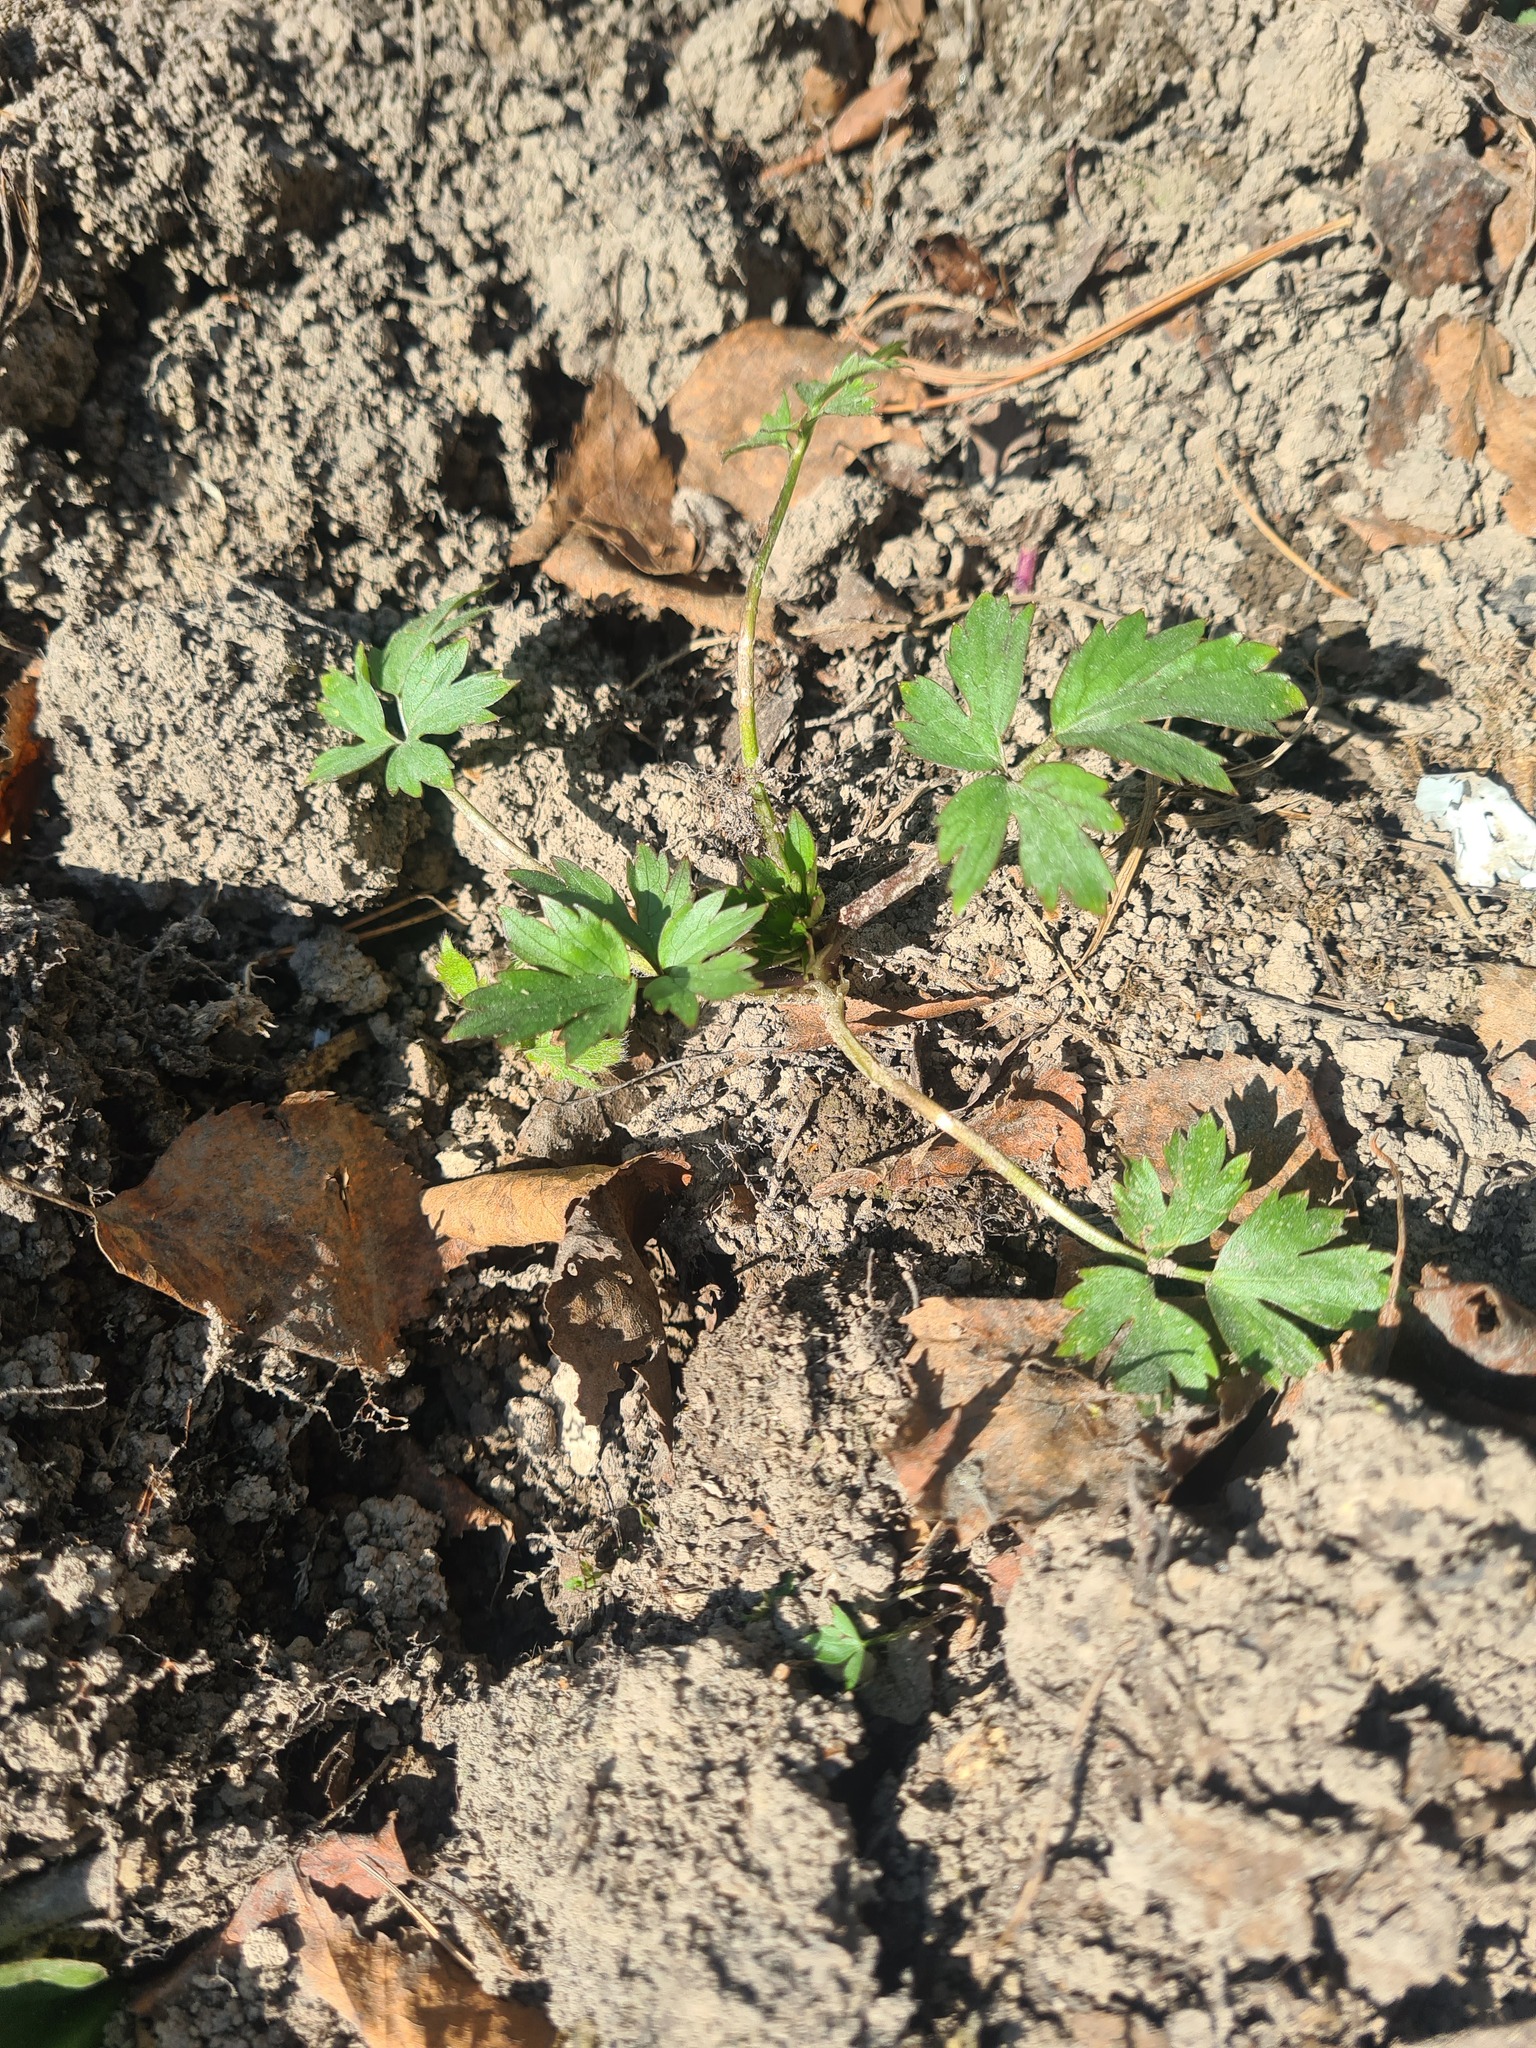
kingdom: Plantae
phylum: Tracheophyta
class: Magnoliopsida
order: Ranunculales
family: Ranunculaceae
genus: Ranunculus
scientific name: Ranunculus repens
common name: Creeping buttercup
